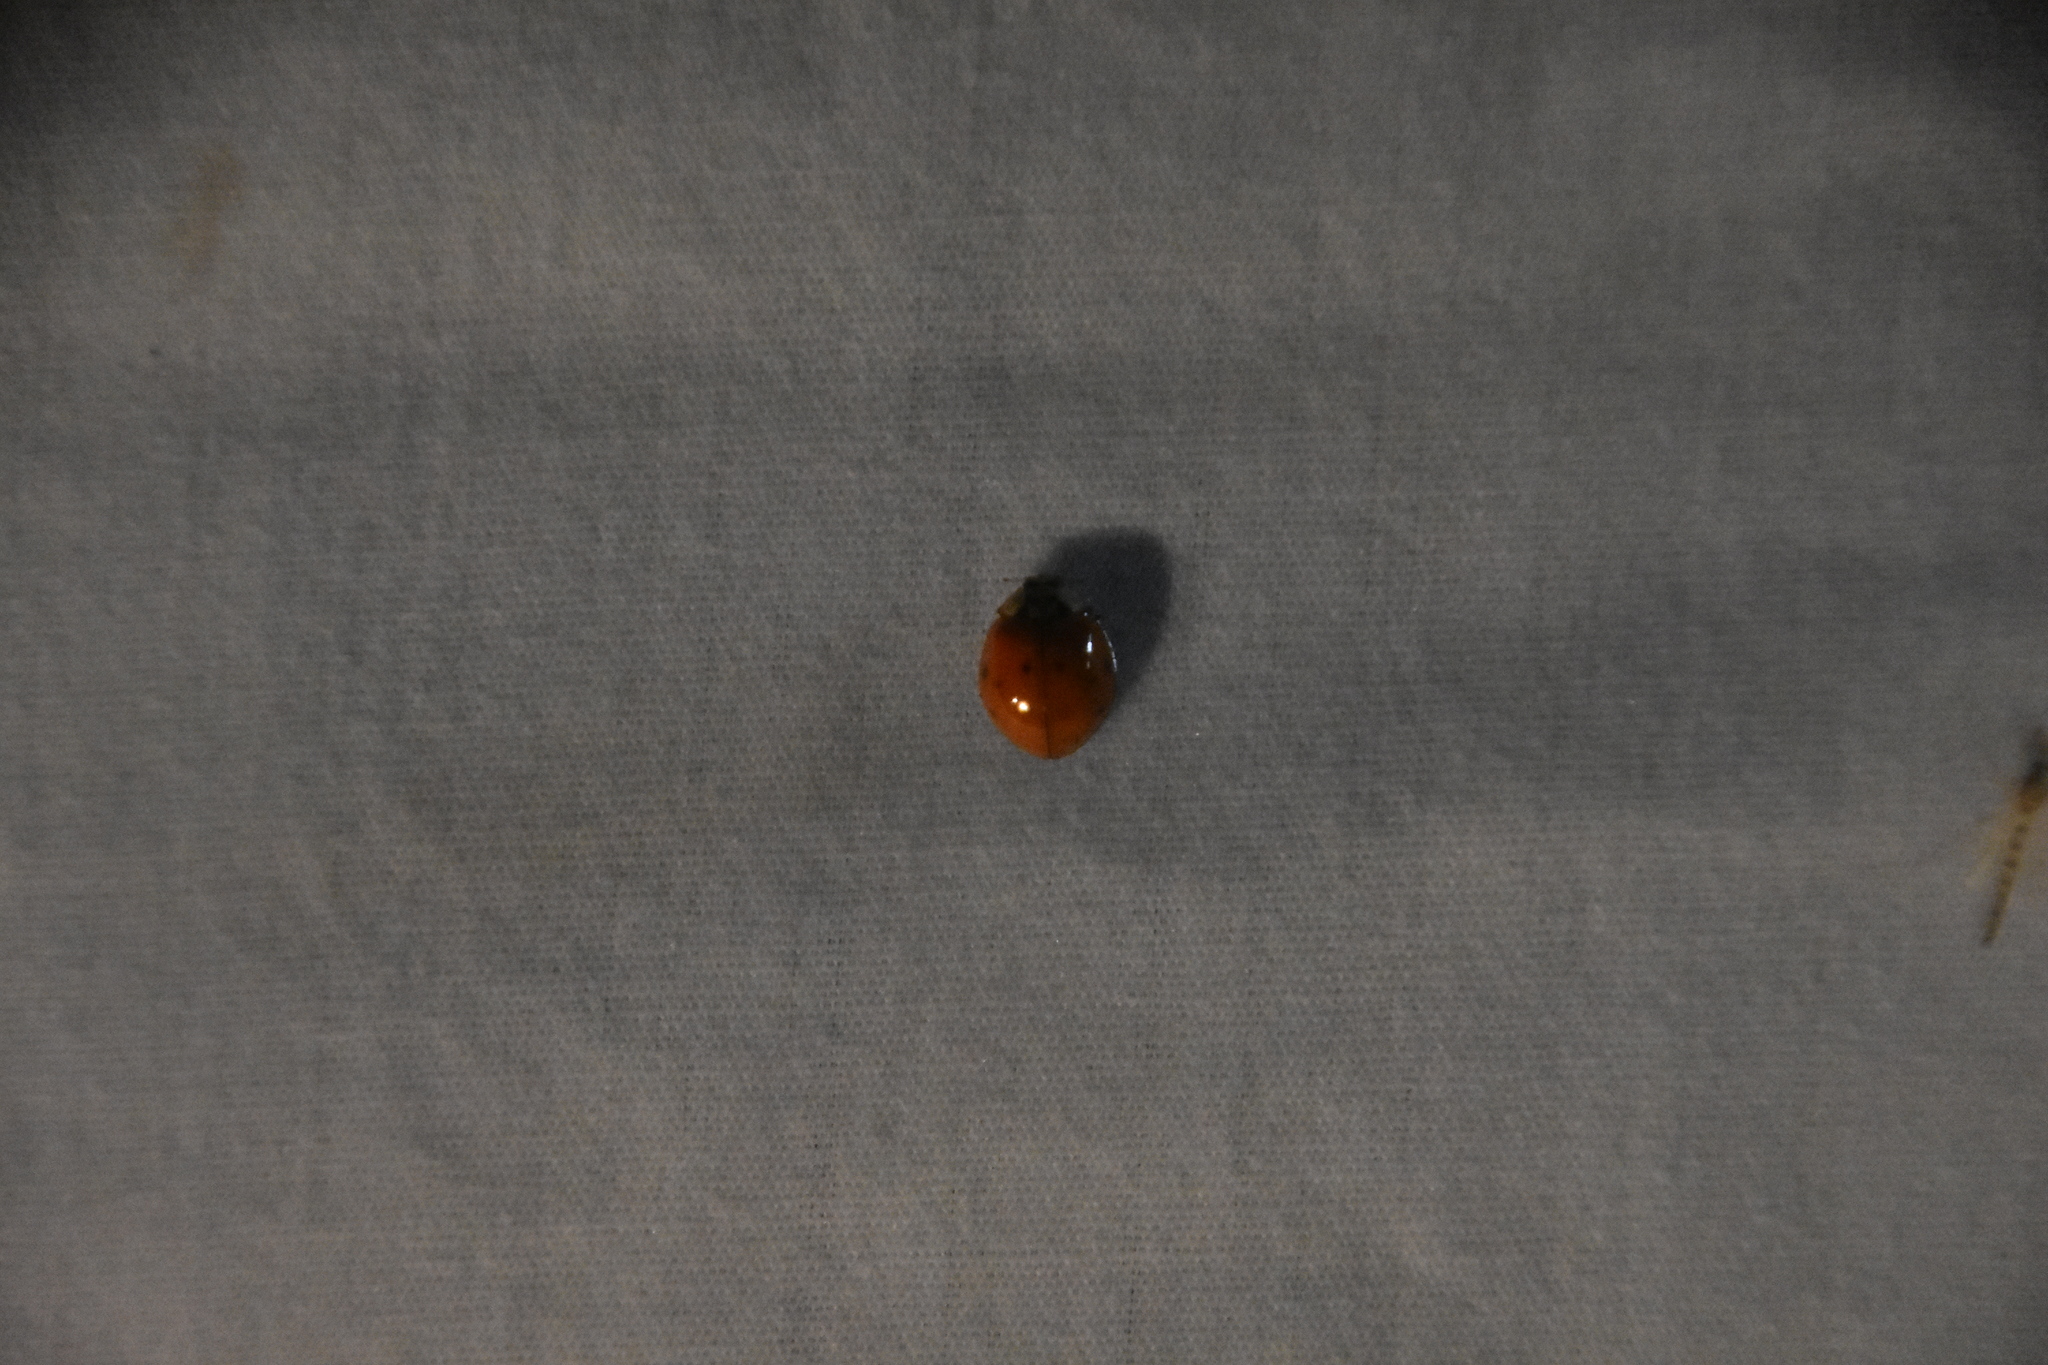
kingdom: Animalia
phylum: Arthropoda
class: Insecta
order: Coleoptera
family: Coccinellidae
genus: Harmonia
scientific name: Harmonia axyridis
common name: Harlequin ladybird
